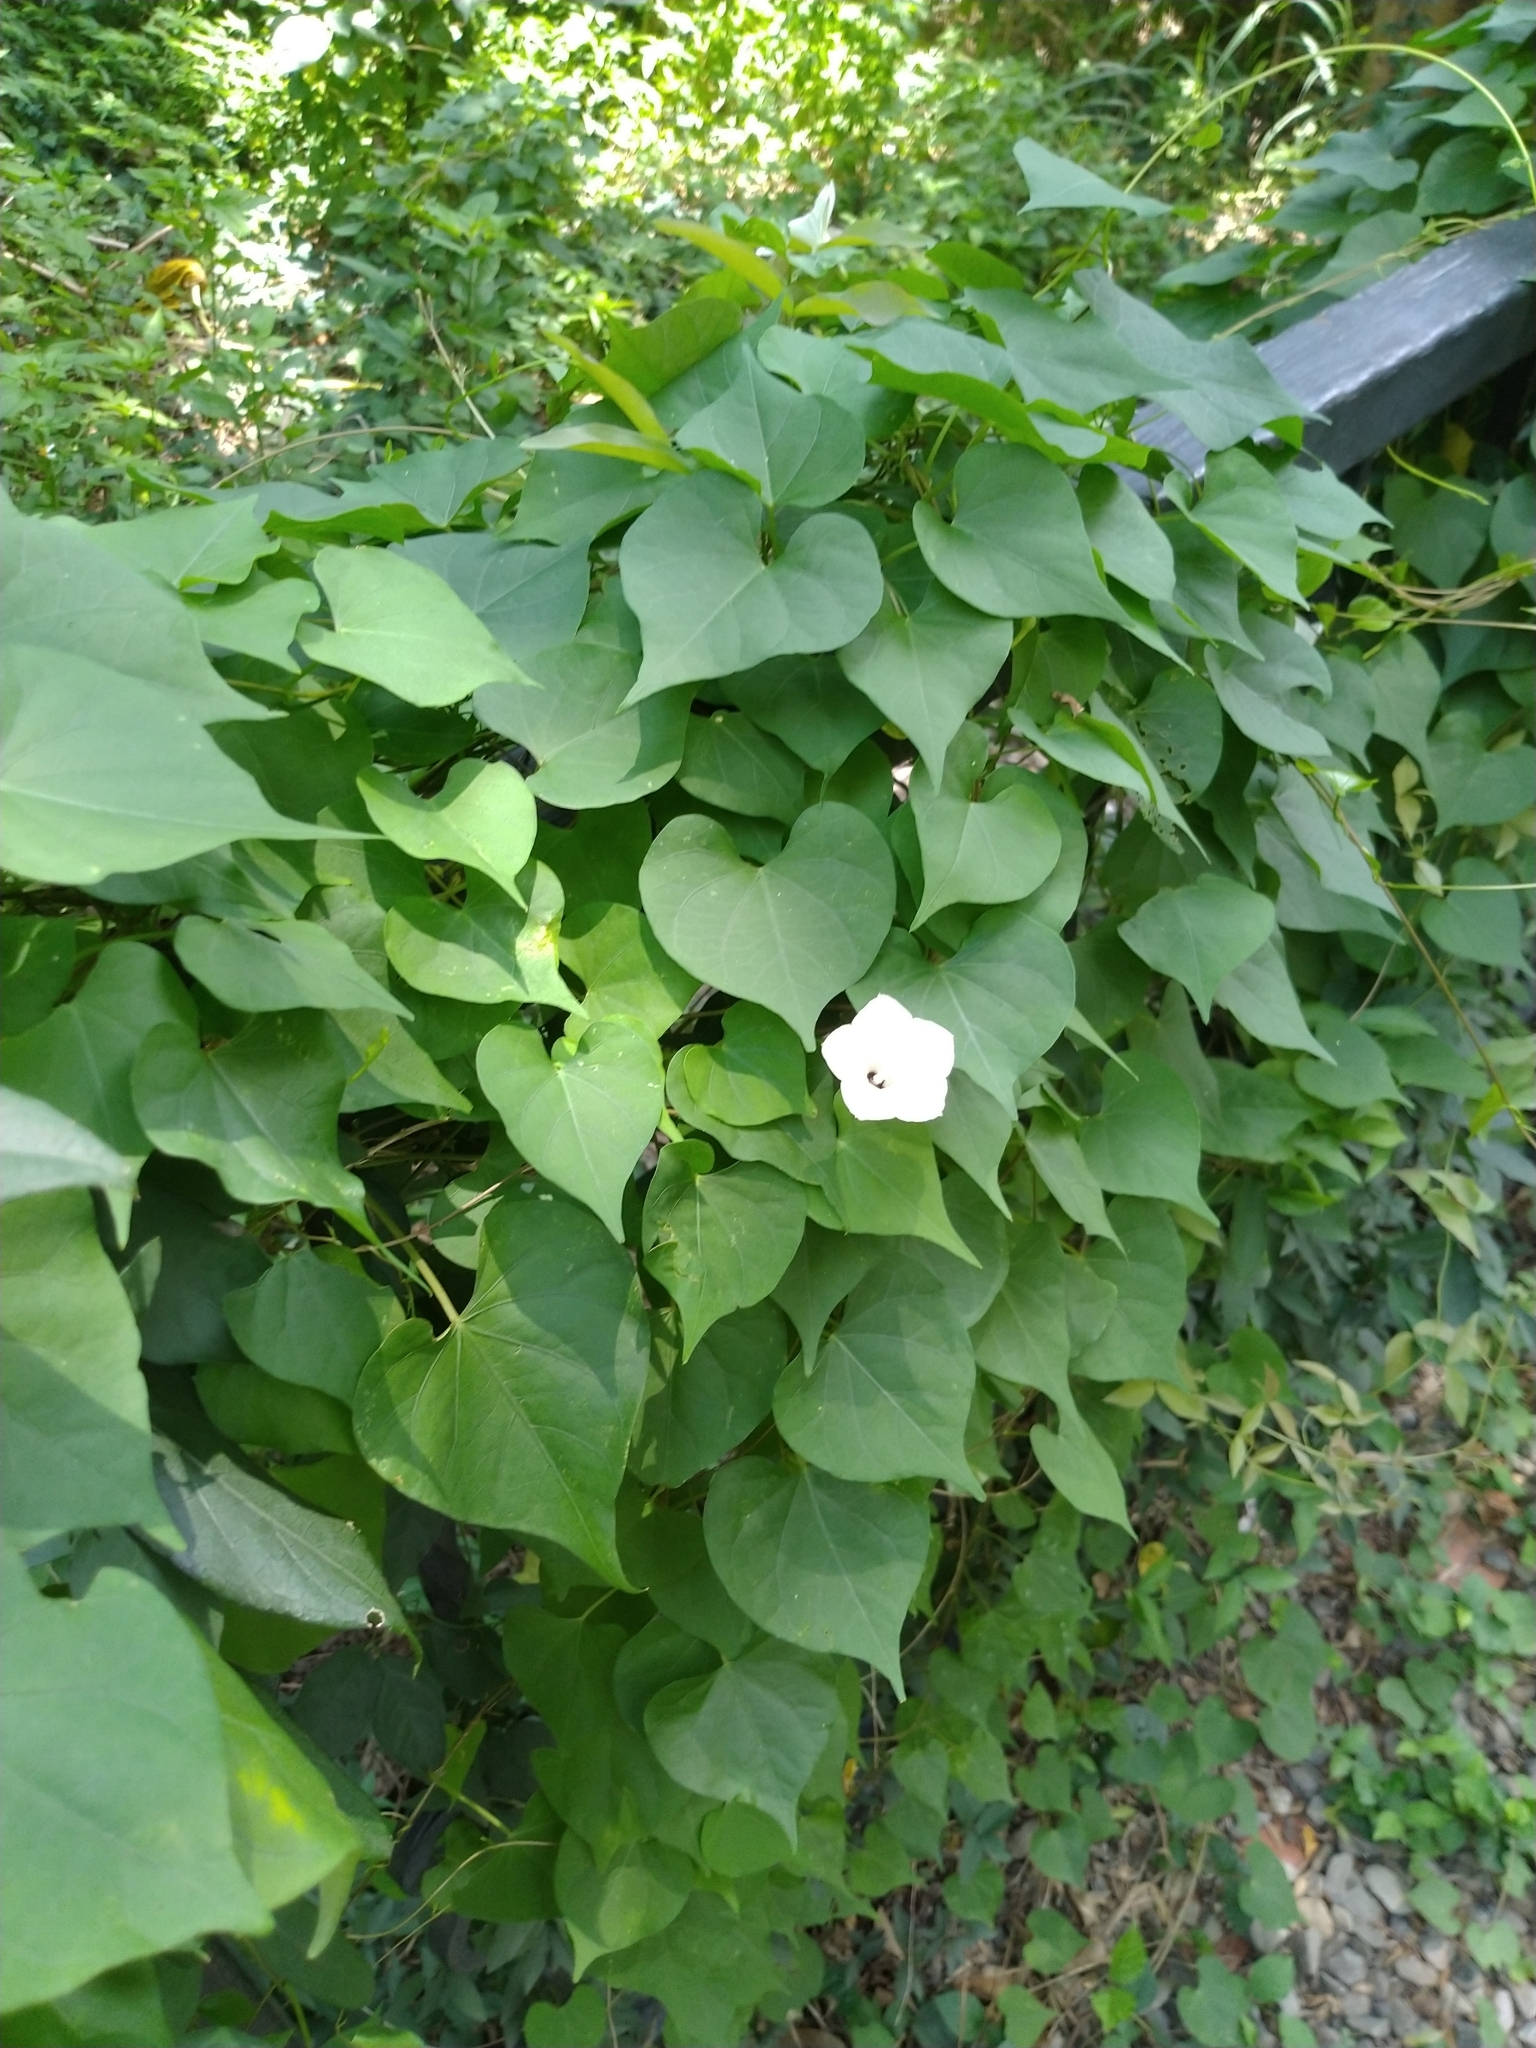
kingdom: Plantae
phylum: Tracheophyta
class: Magnoliopsida
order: Solanales
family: Convolvulaceae
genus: Ipomoea
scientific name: Ipomoea obscura
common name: Obscure morning-glory
